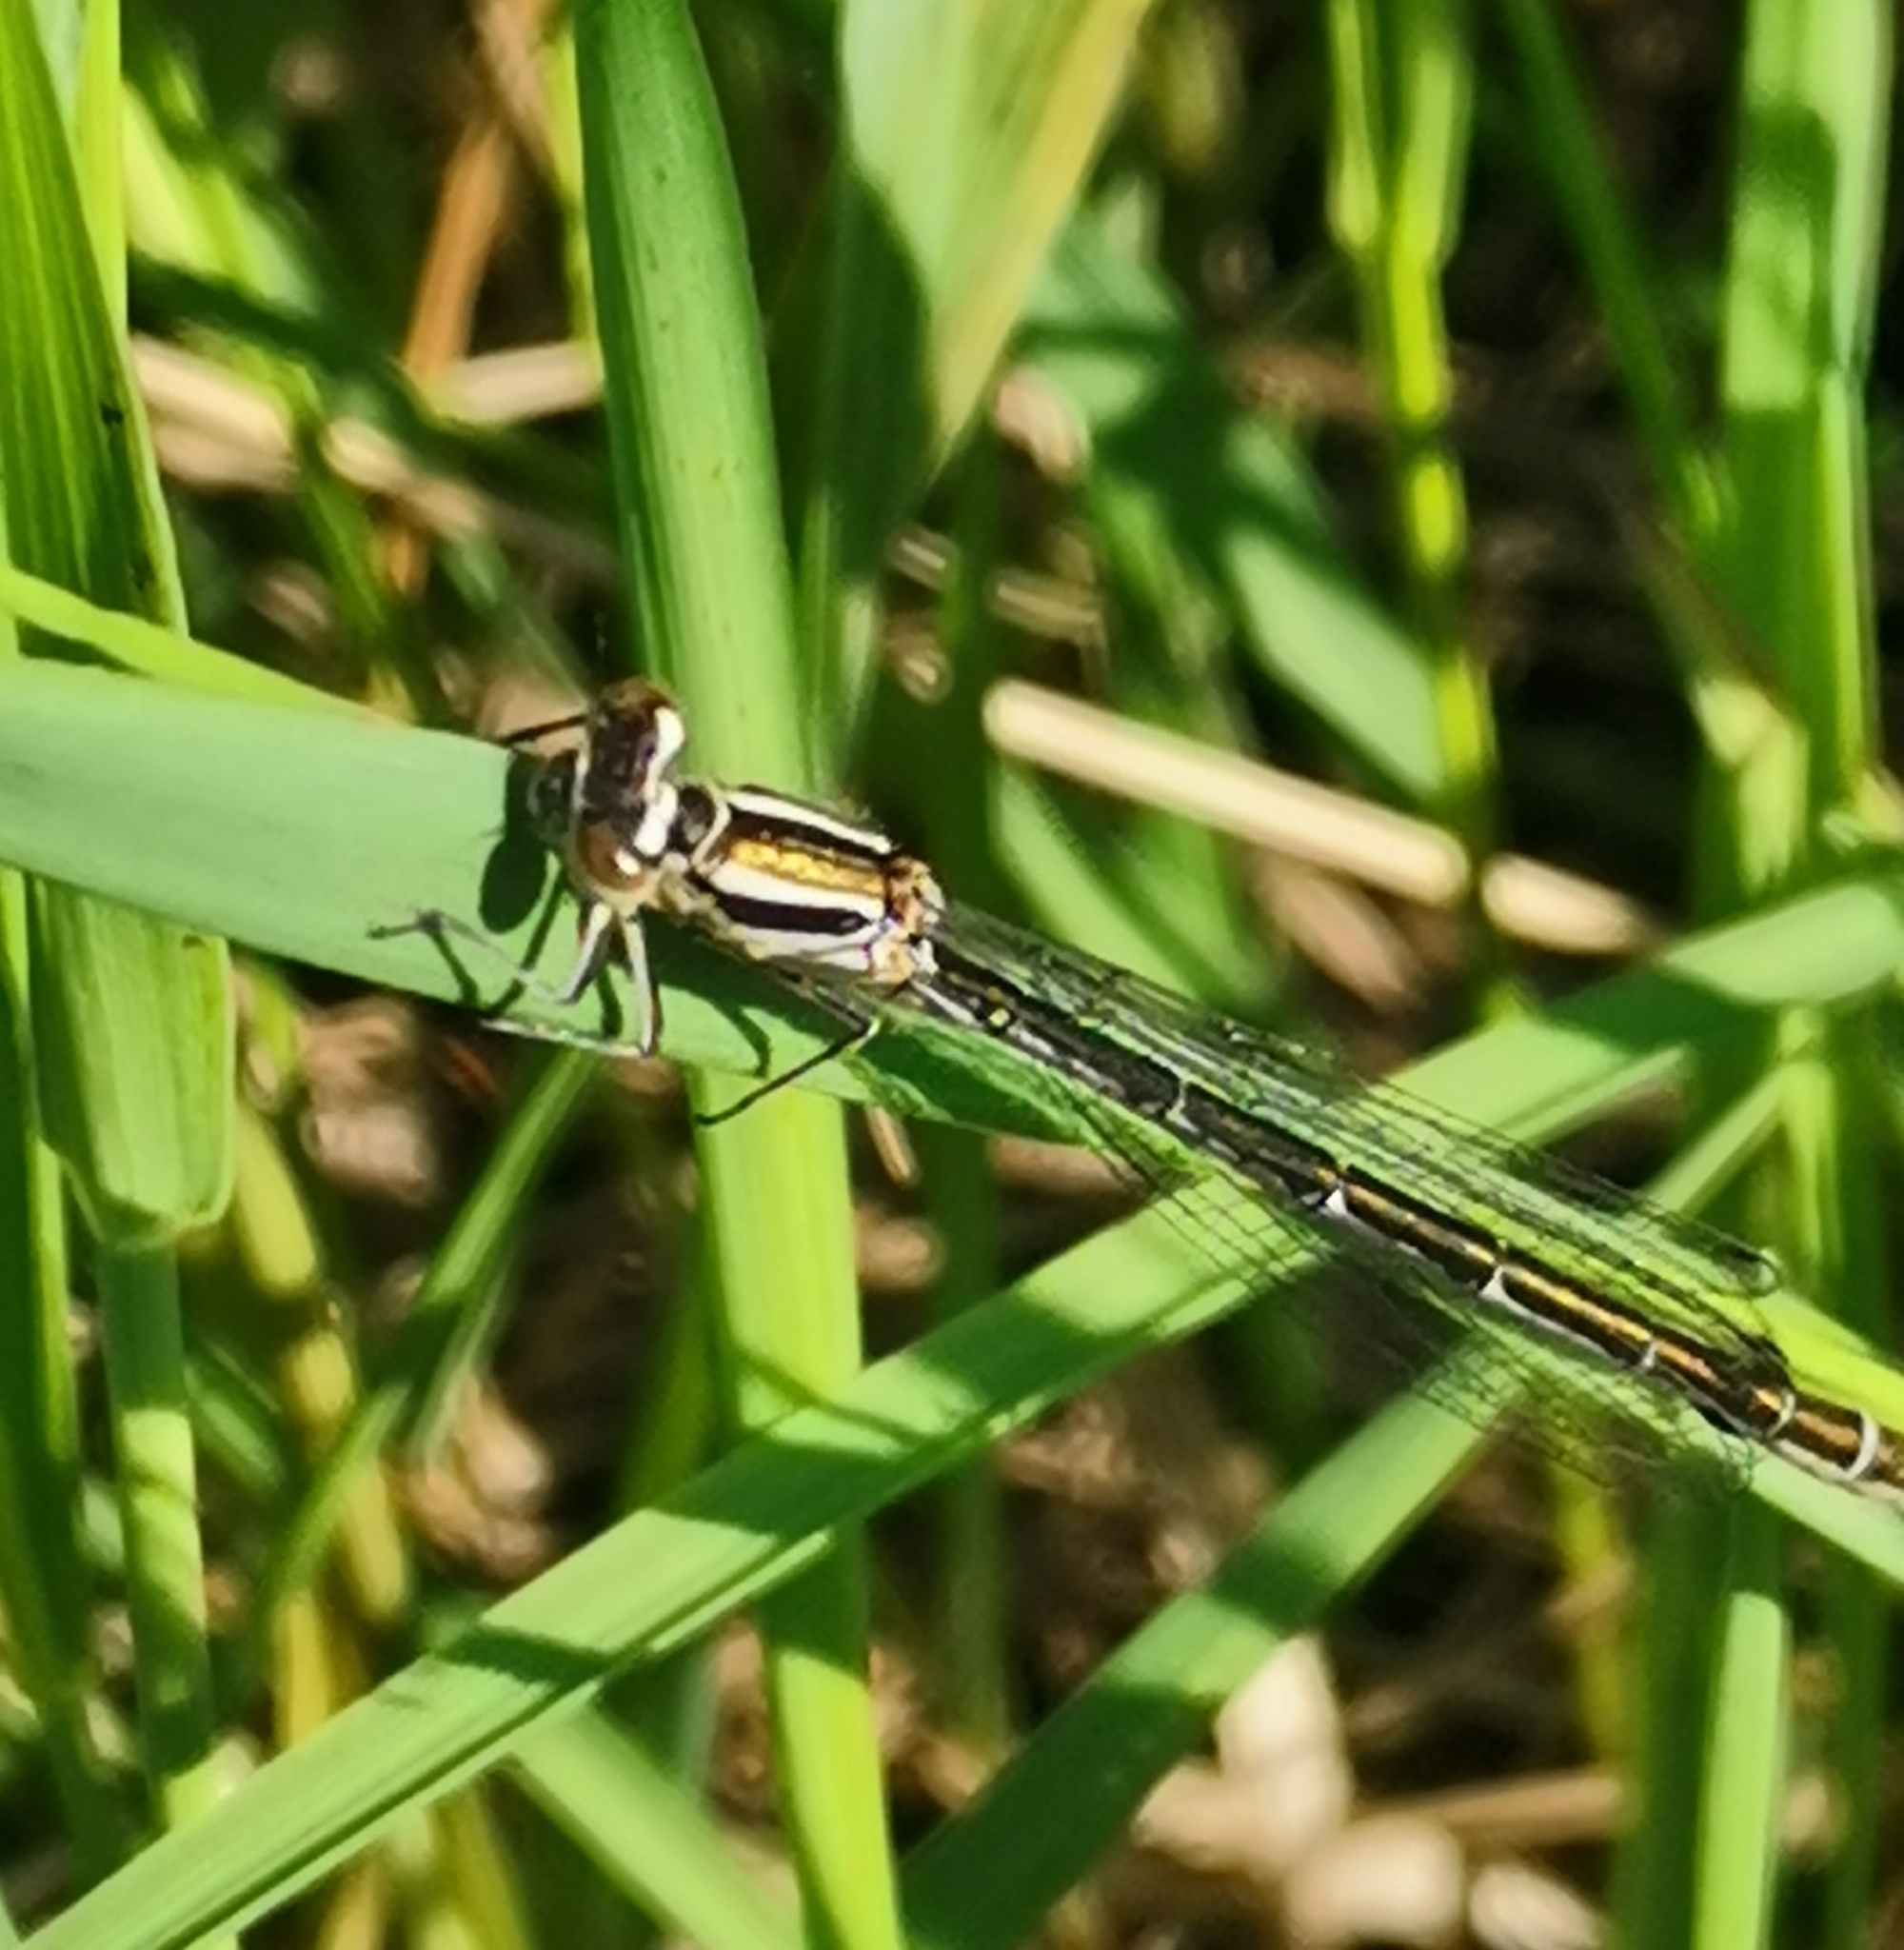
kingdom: Animalia
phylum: Arthropoda
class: Insecta
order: Odonata
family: Coenagrionidae
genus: Coenagrion
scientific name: Coenagrion hastulatum
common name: Spearhead bluet
